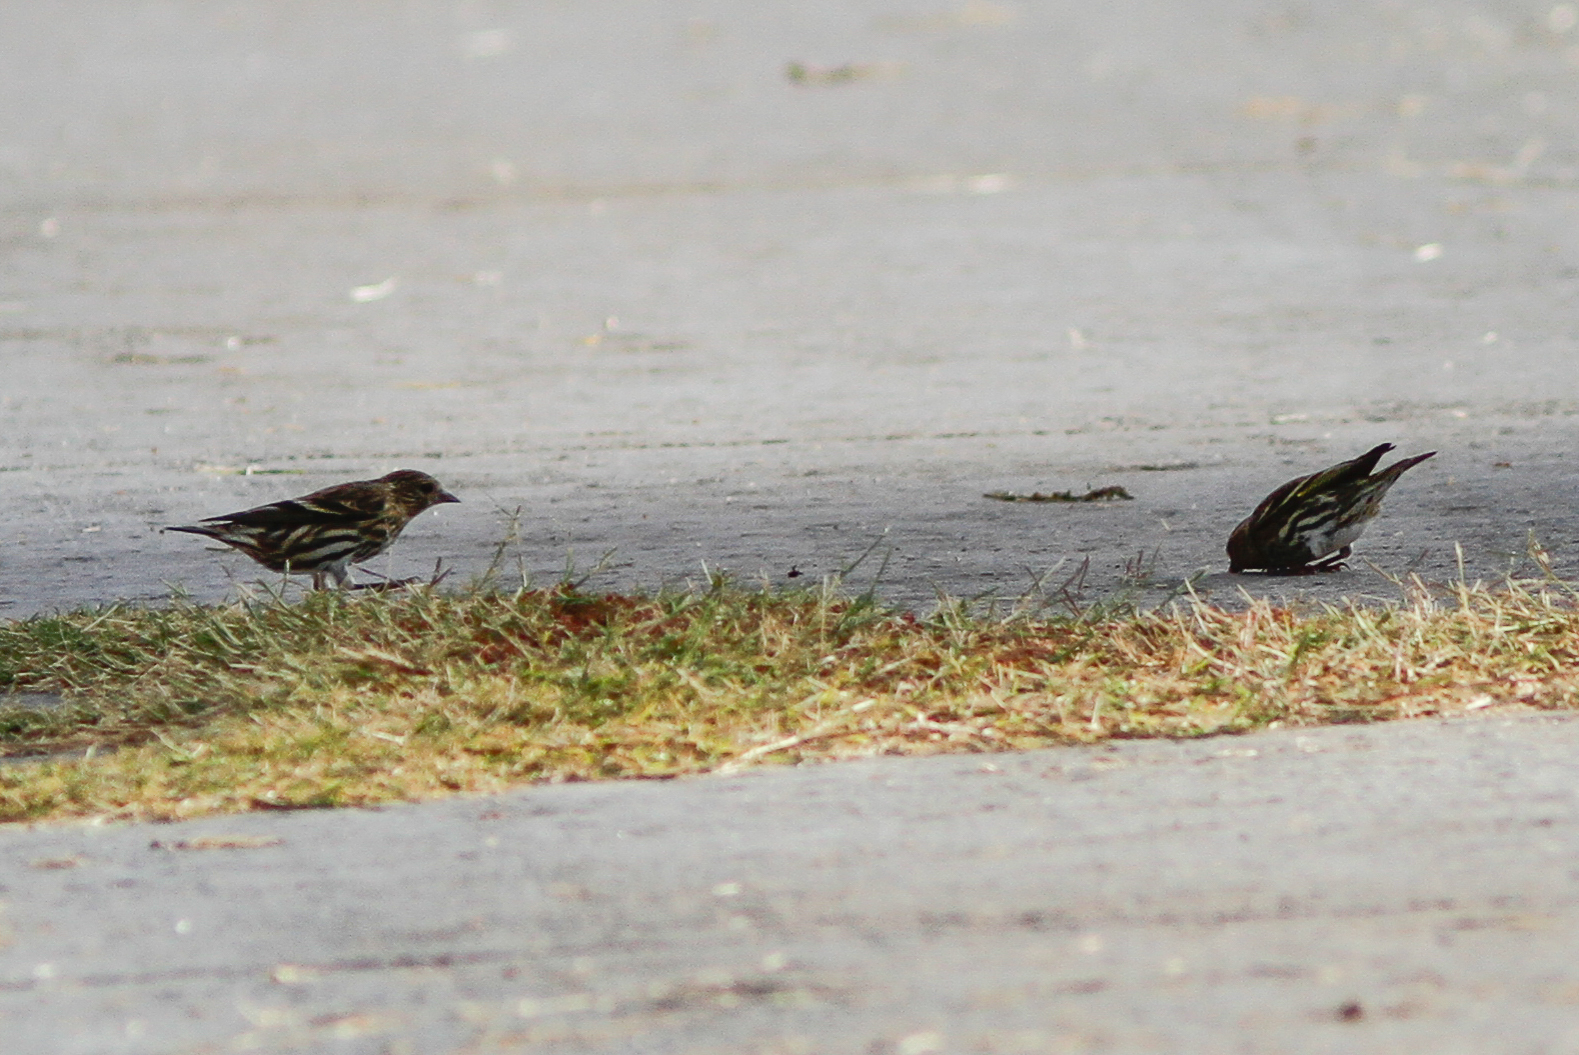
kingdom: Animalia
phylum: Chordata
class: Aves
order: Passeriformes
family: Fringillidae
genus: Spinus
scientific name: Spinus pinus
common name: Pine siskin
